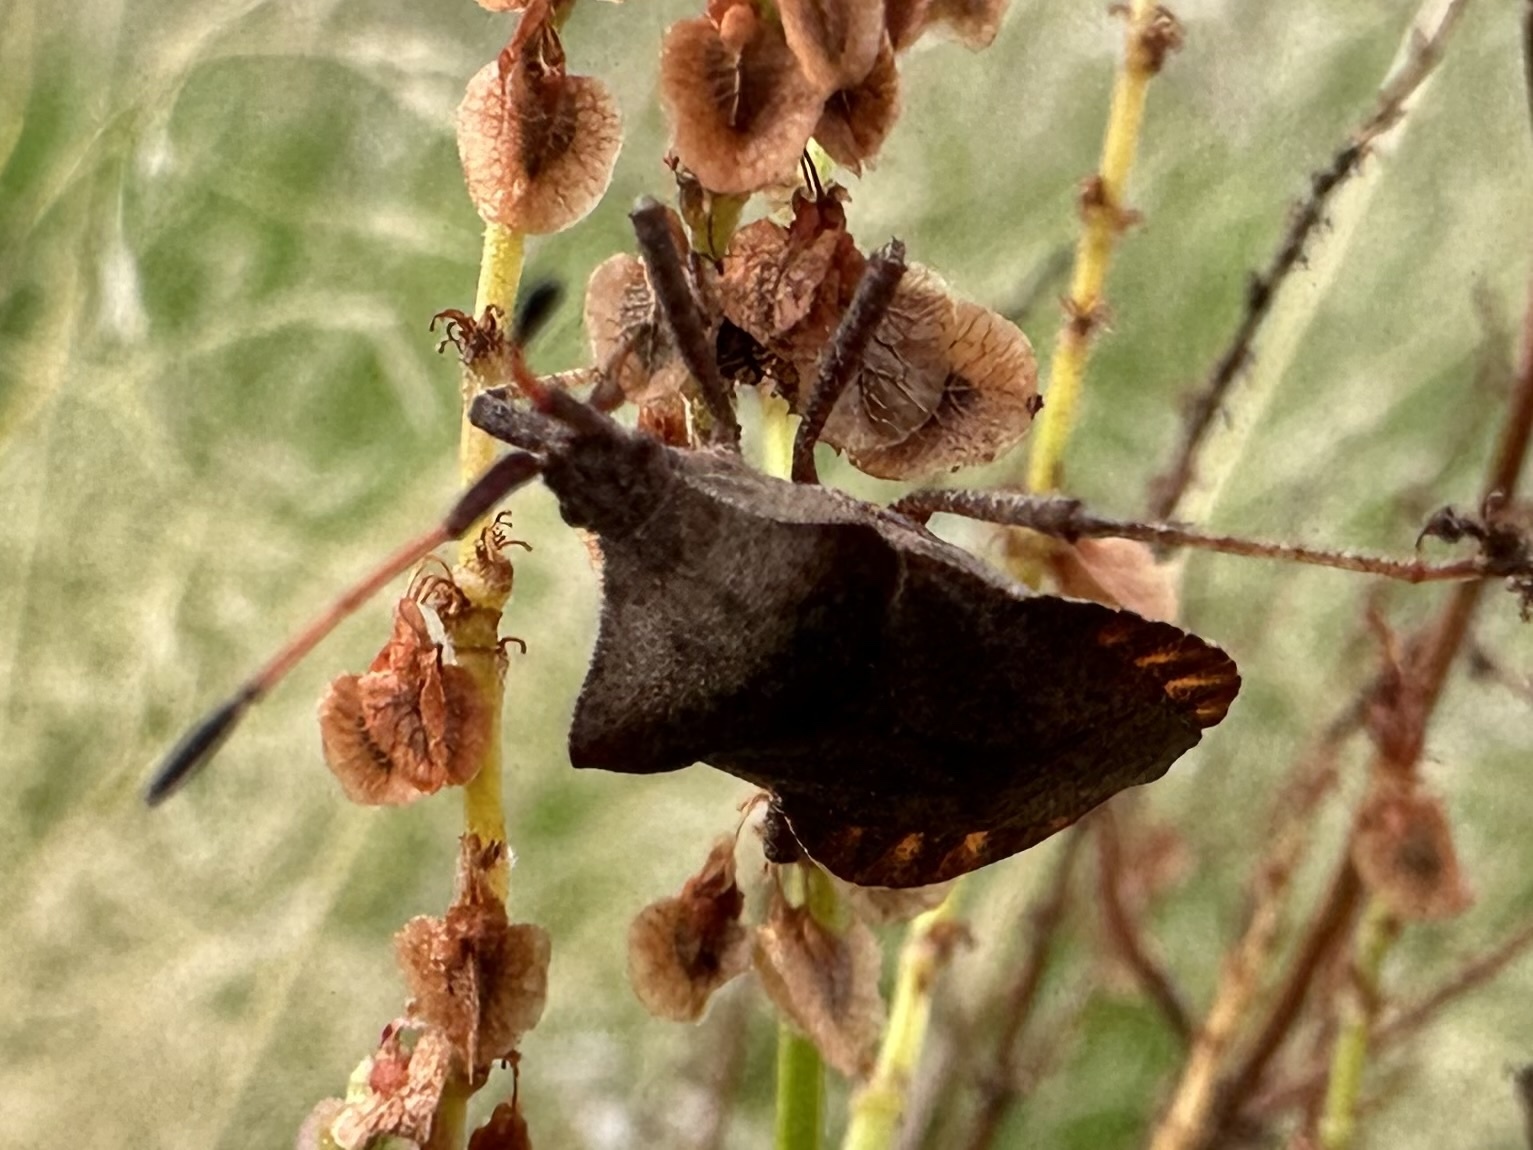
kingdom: Animalia
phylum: Arthropoda
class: Insecta
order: Hemiptera
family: Coreidae
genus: Coreus
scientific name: Coreus marginatus
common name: Dock bug
